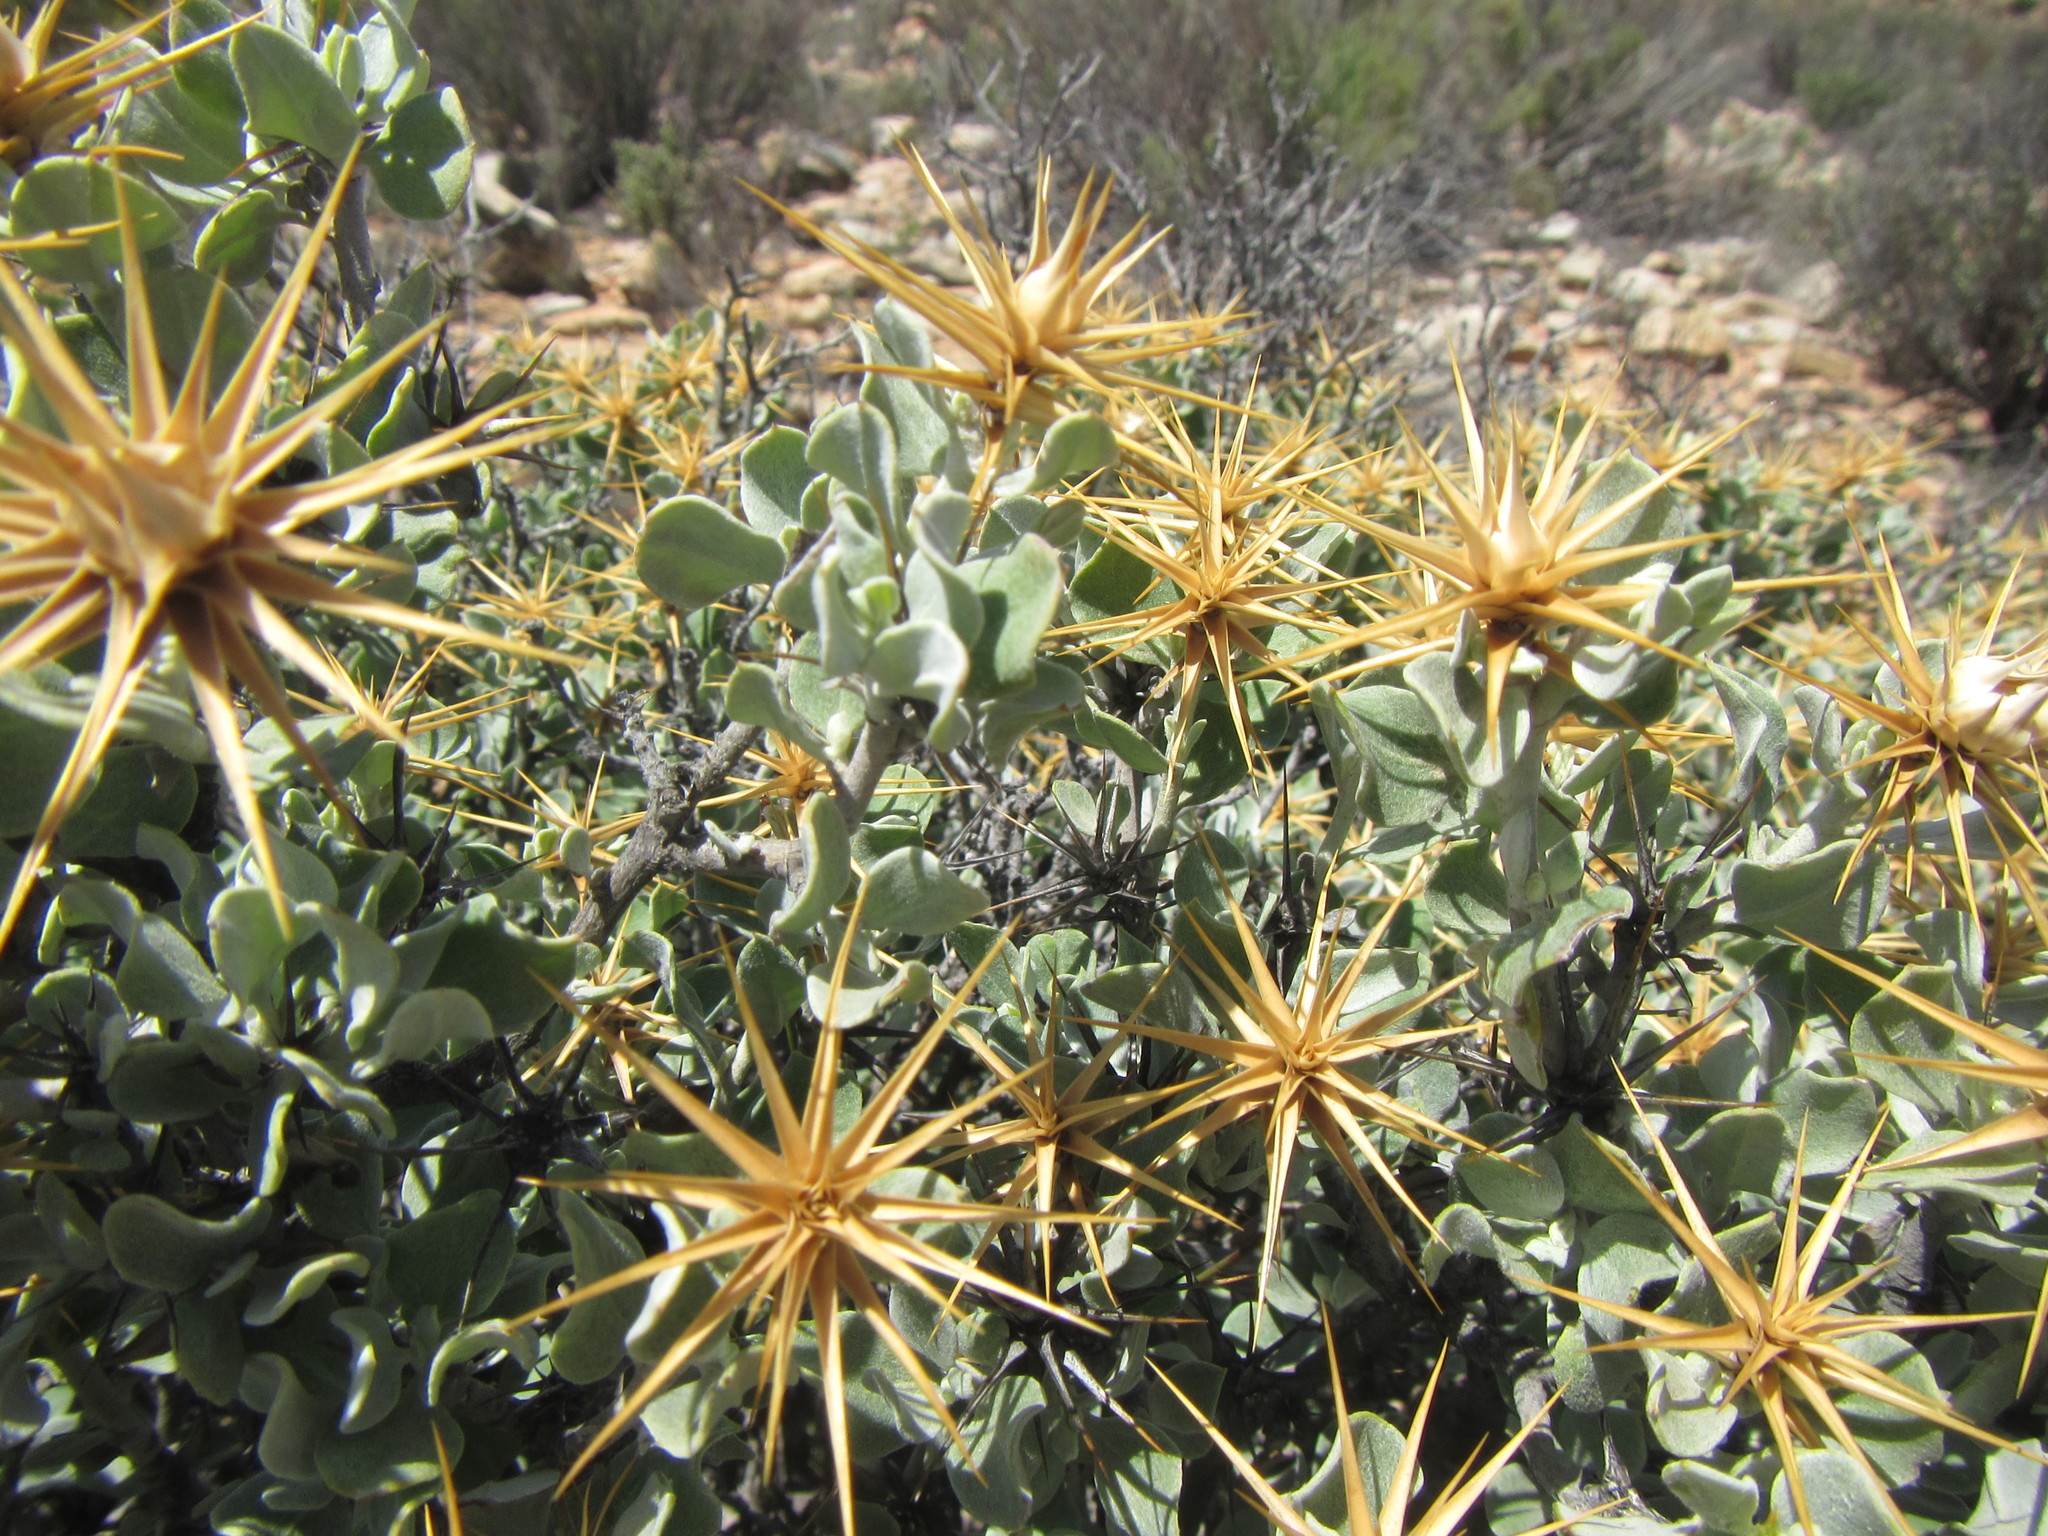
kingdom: Plantae
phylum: Tracheophyta
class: Magnoliopsida
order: Asterales
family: Asteraceae
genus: Macledium
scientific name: Macledium spinosum
